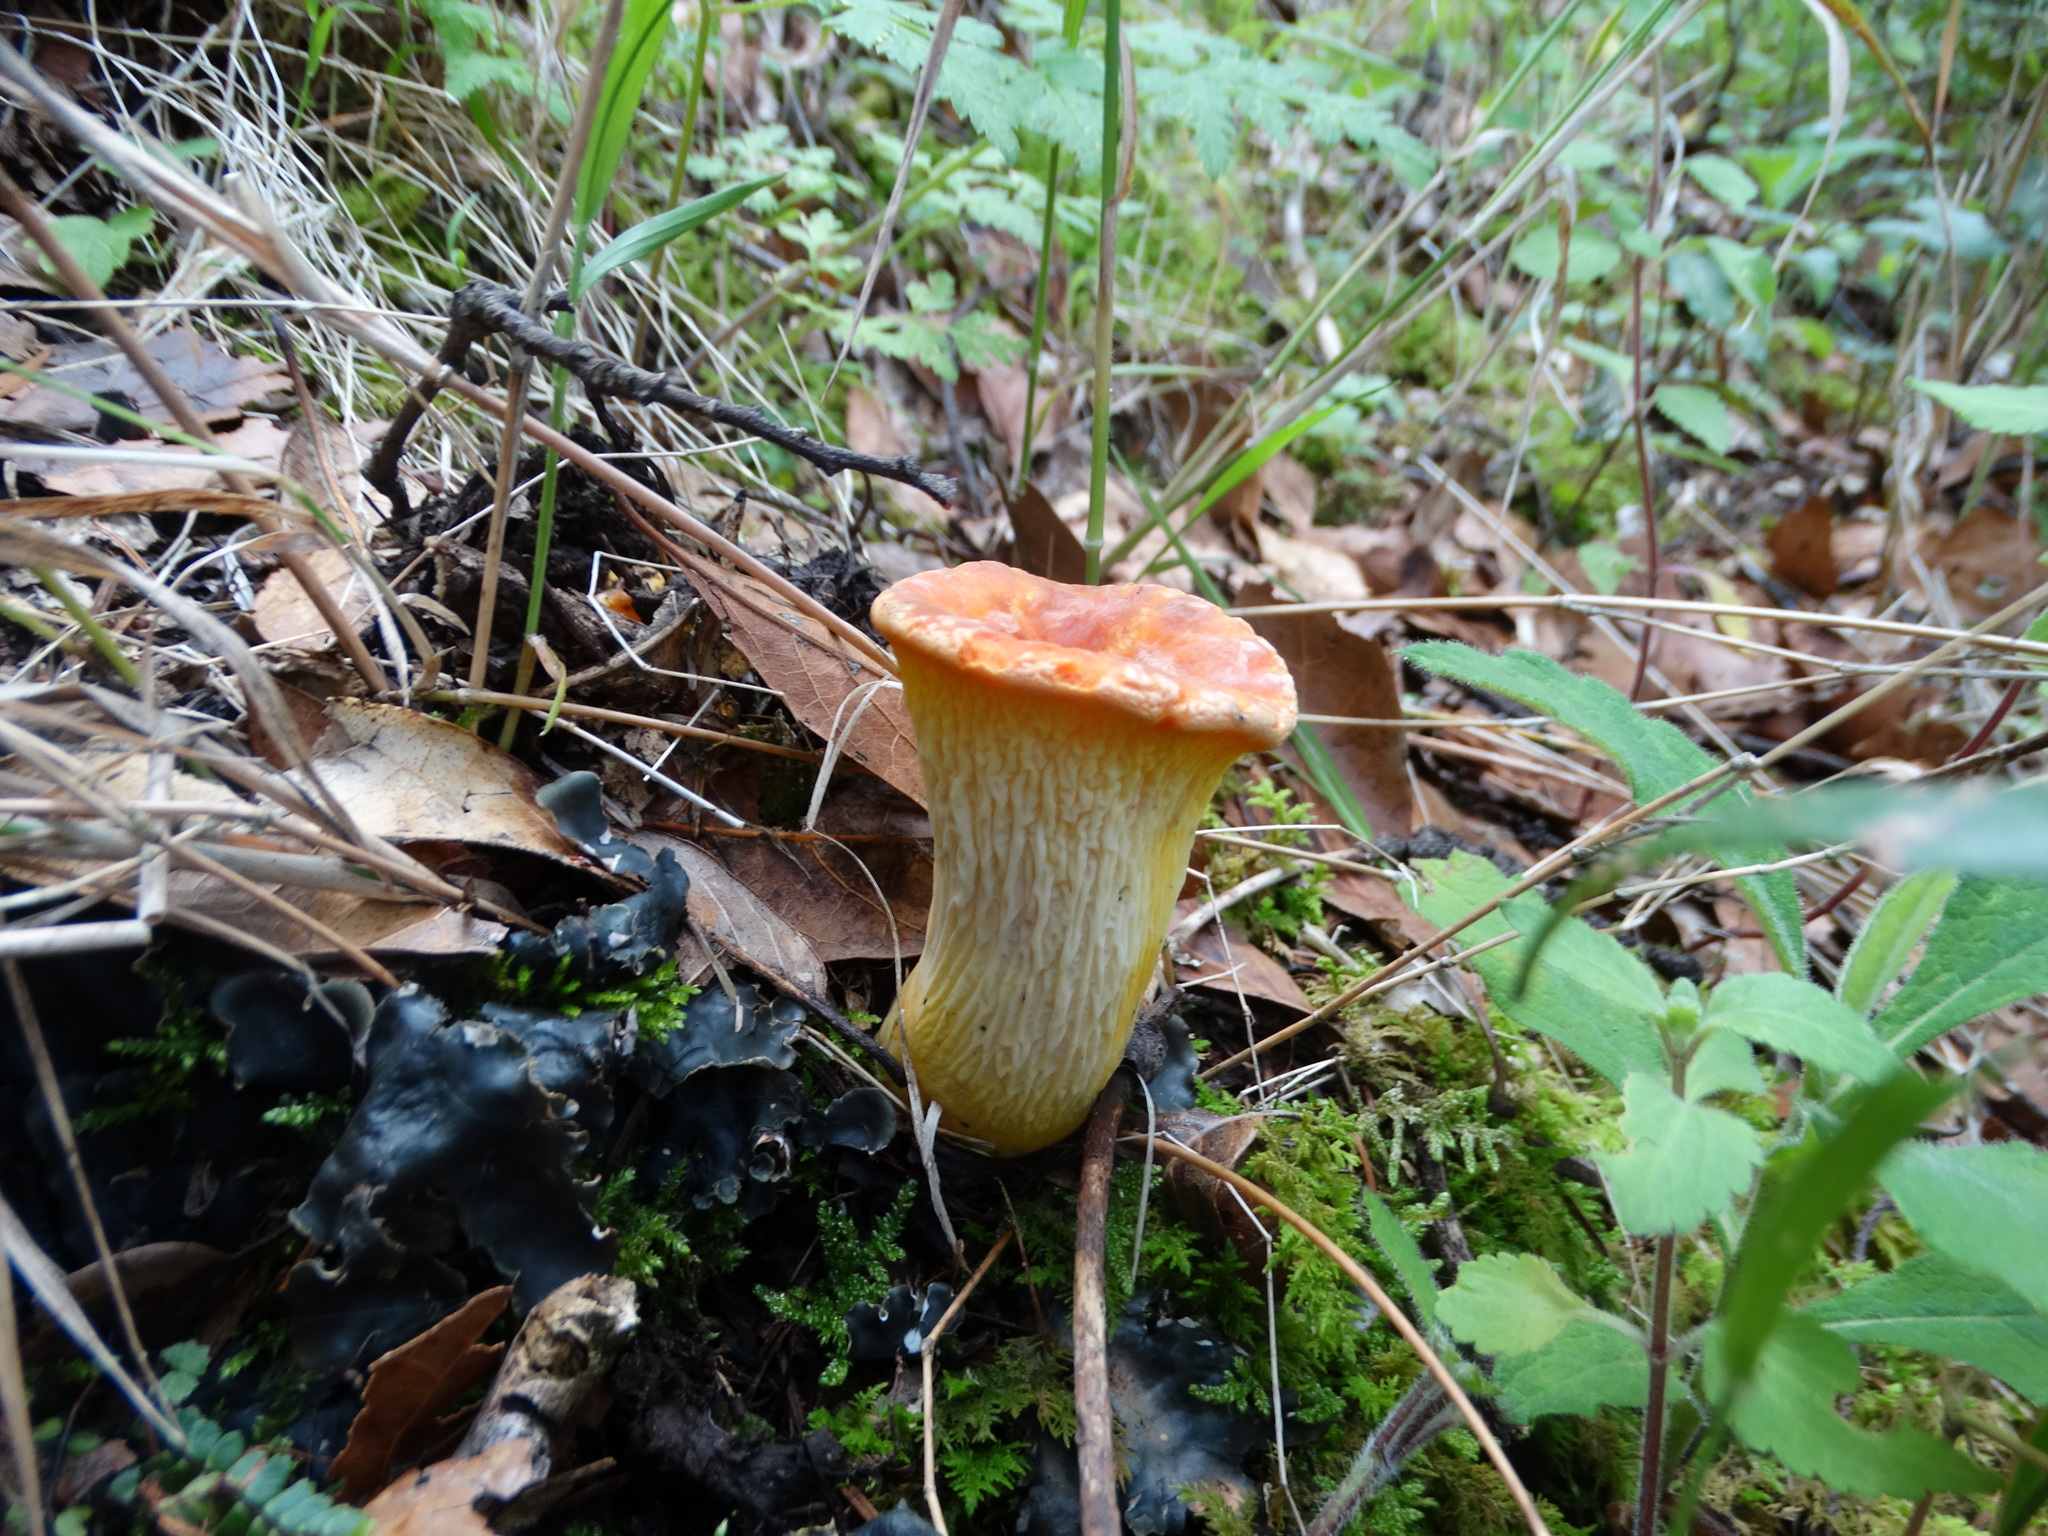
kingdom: Fungi
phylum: Basidiomycota
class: Agaricomycetes
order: Gomphales
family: Gomphaceae
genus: Turbinellus
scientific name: Turbinellus floccosus
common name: Scaly chanterelle
